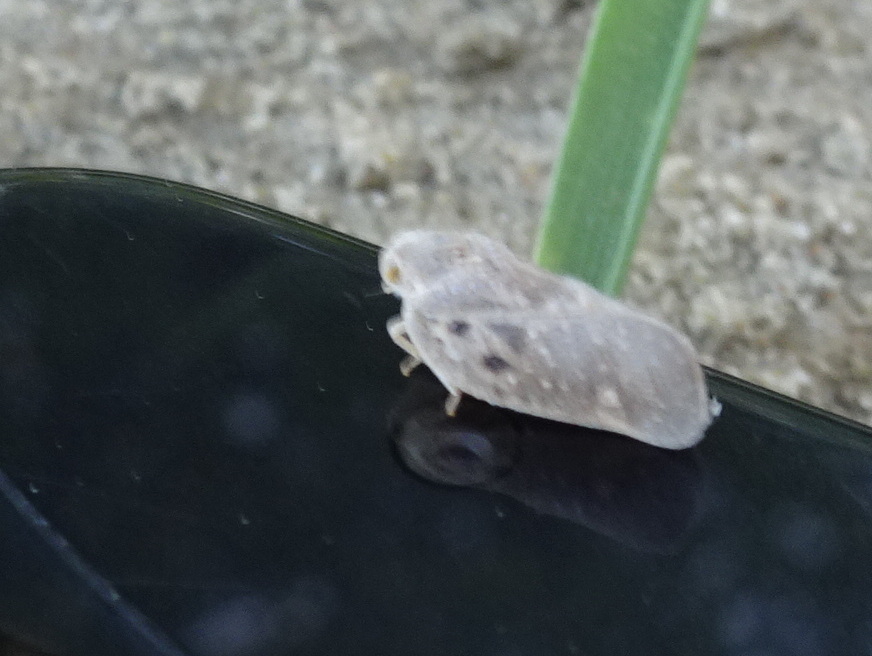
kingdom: Animalia
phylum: Arthropoda
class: Insecta
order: Hemiptera
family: Flatidae
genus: Metcalfa
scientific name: Metcalfa pruinosa
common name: Citrus flatid planthopper
